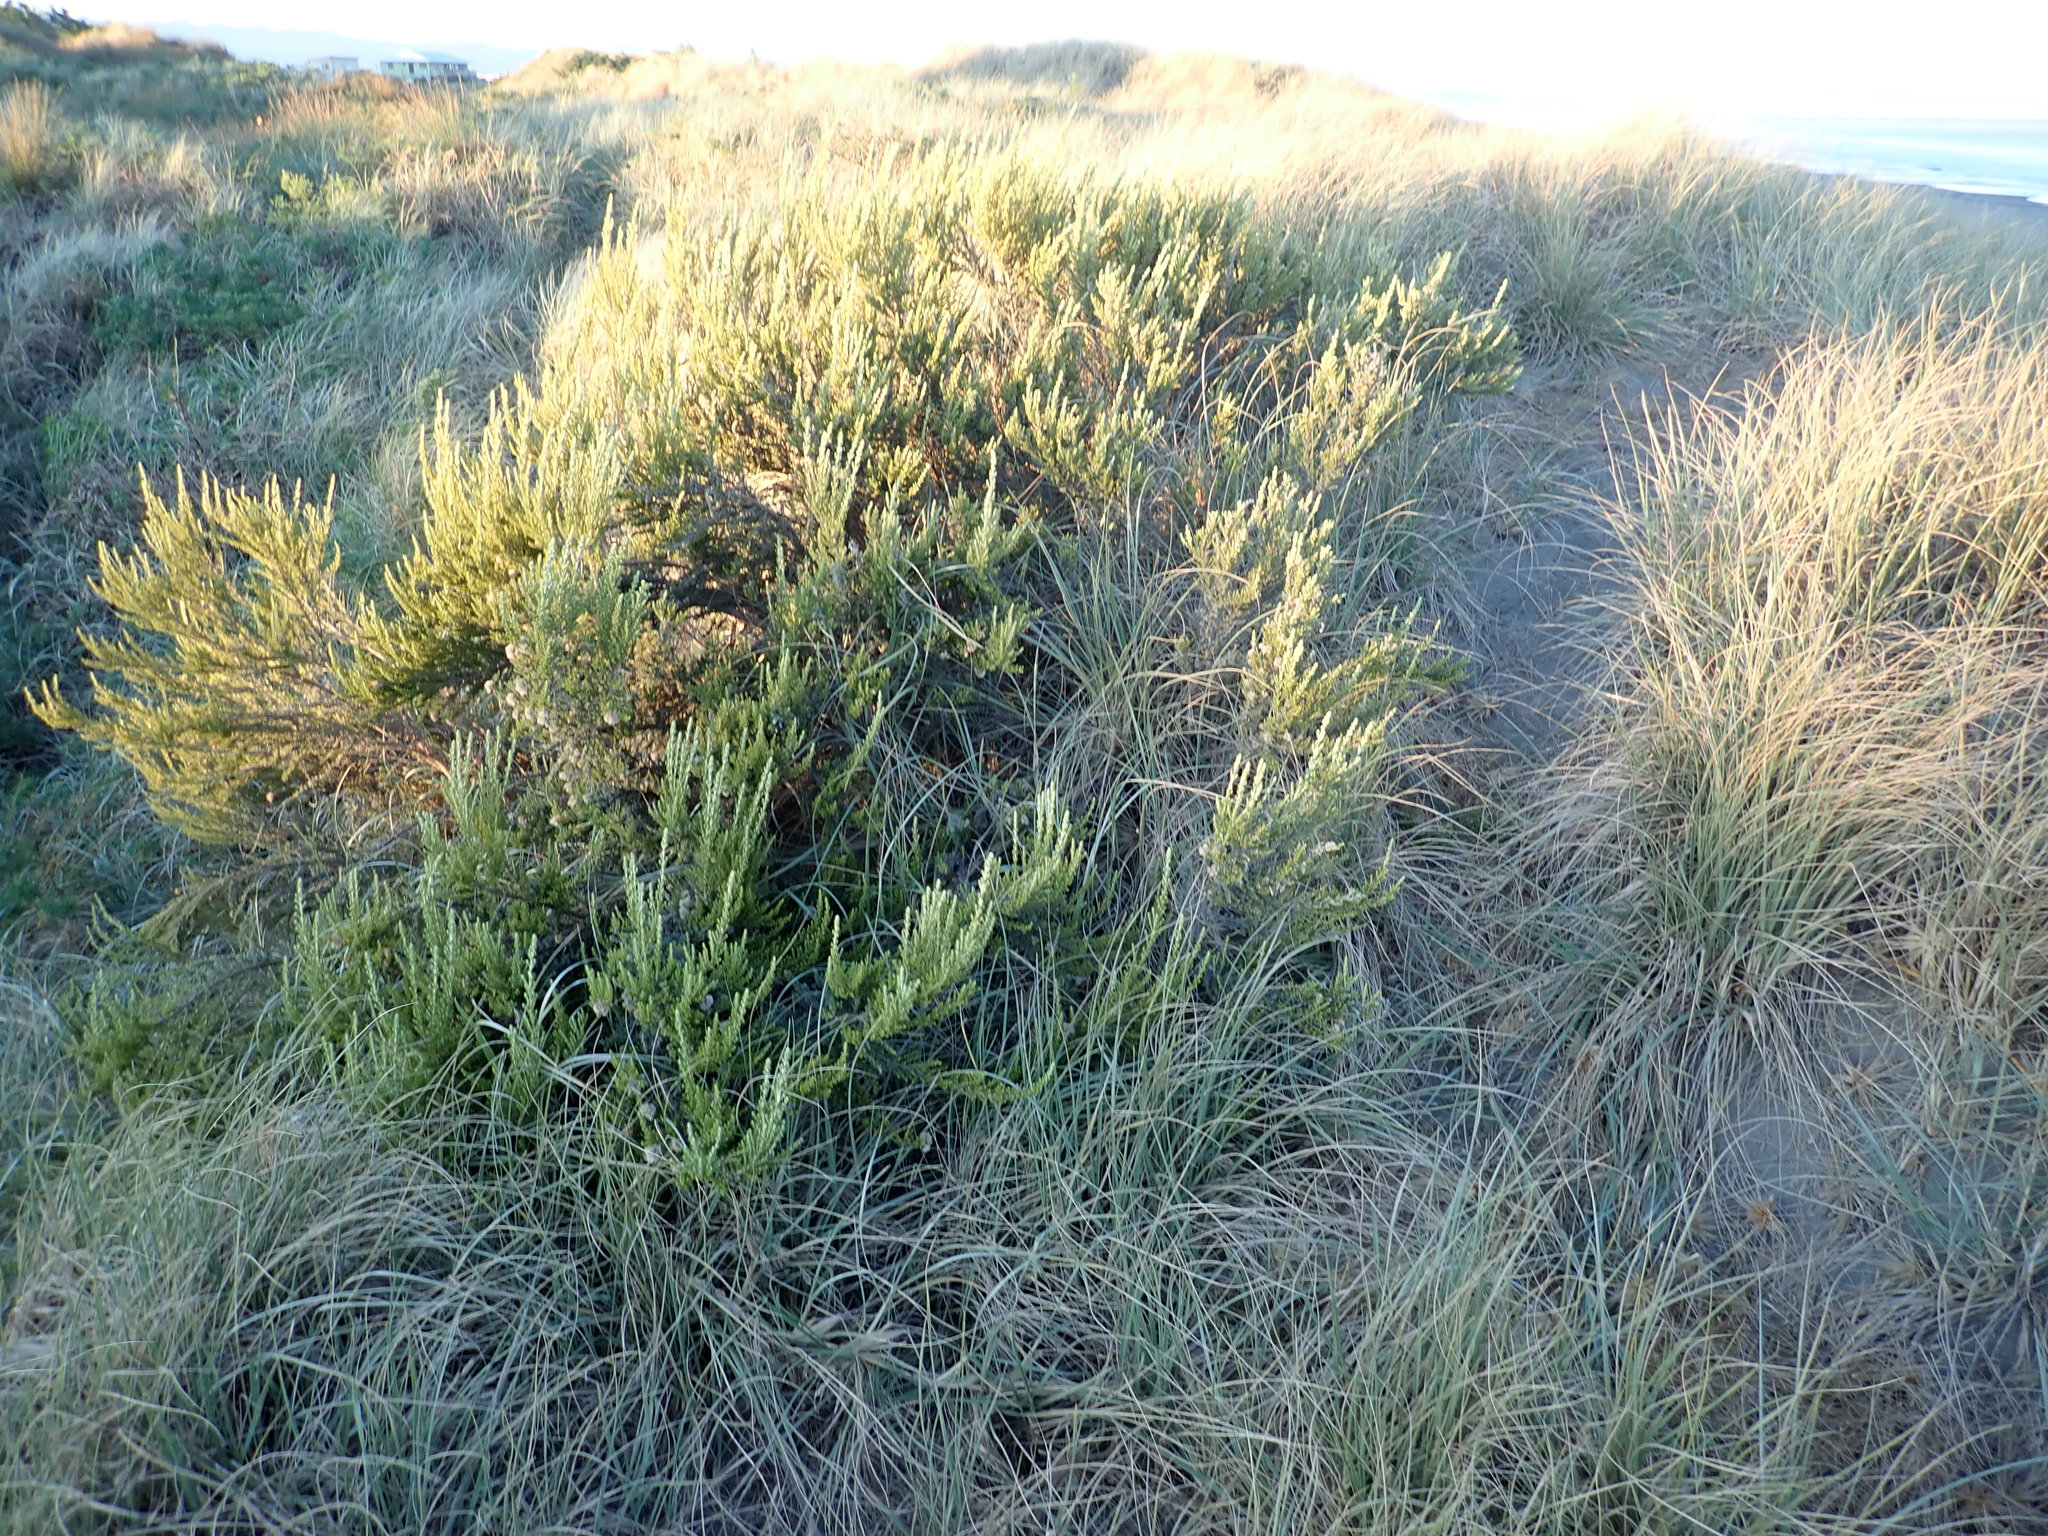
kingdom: Plantae
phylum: Tracheophyta
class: Magnoliopsida
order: Asterales
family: Asteraceae
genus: Ozothamnus
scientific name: Ozothamnus leptophyllus
